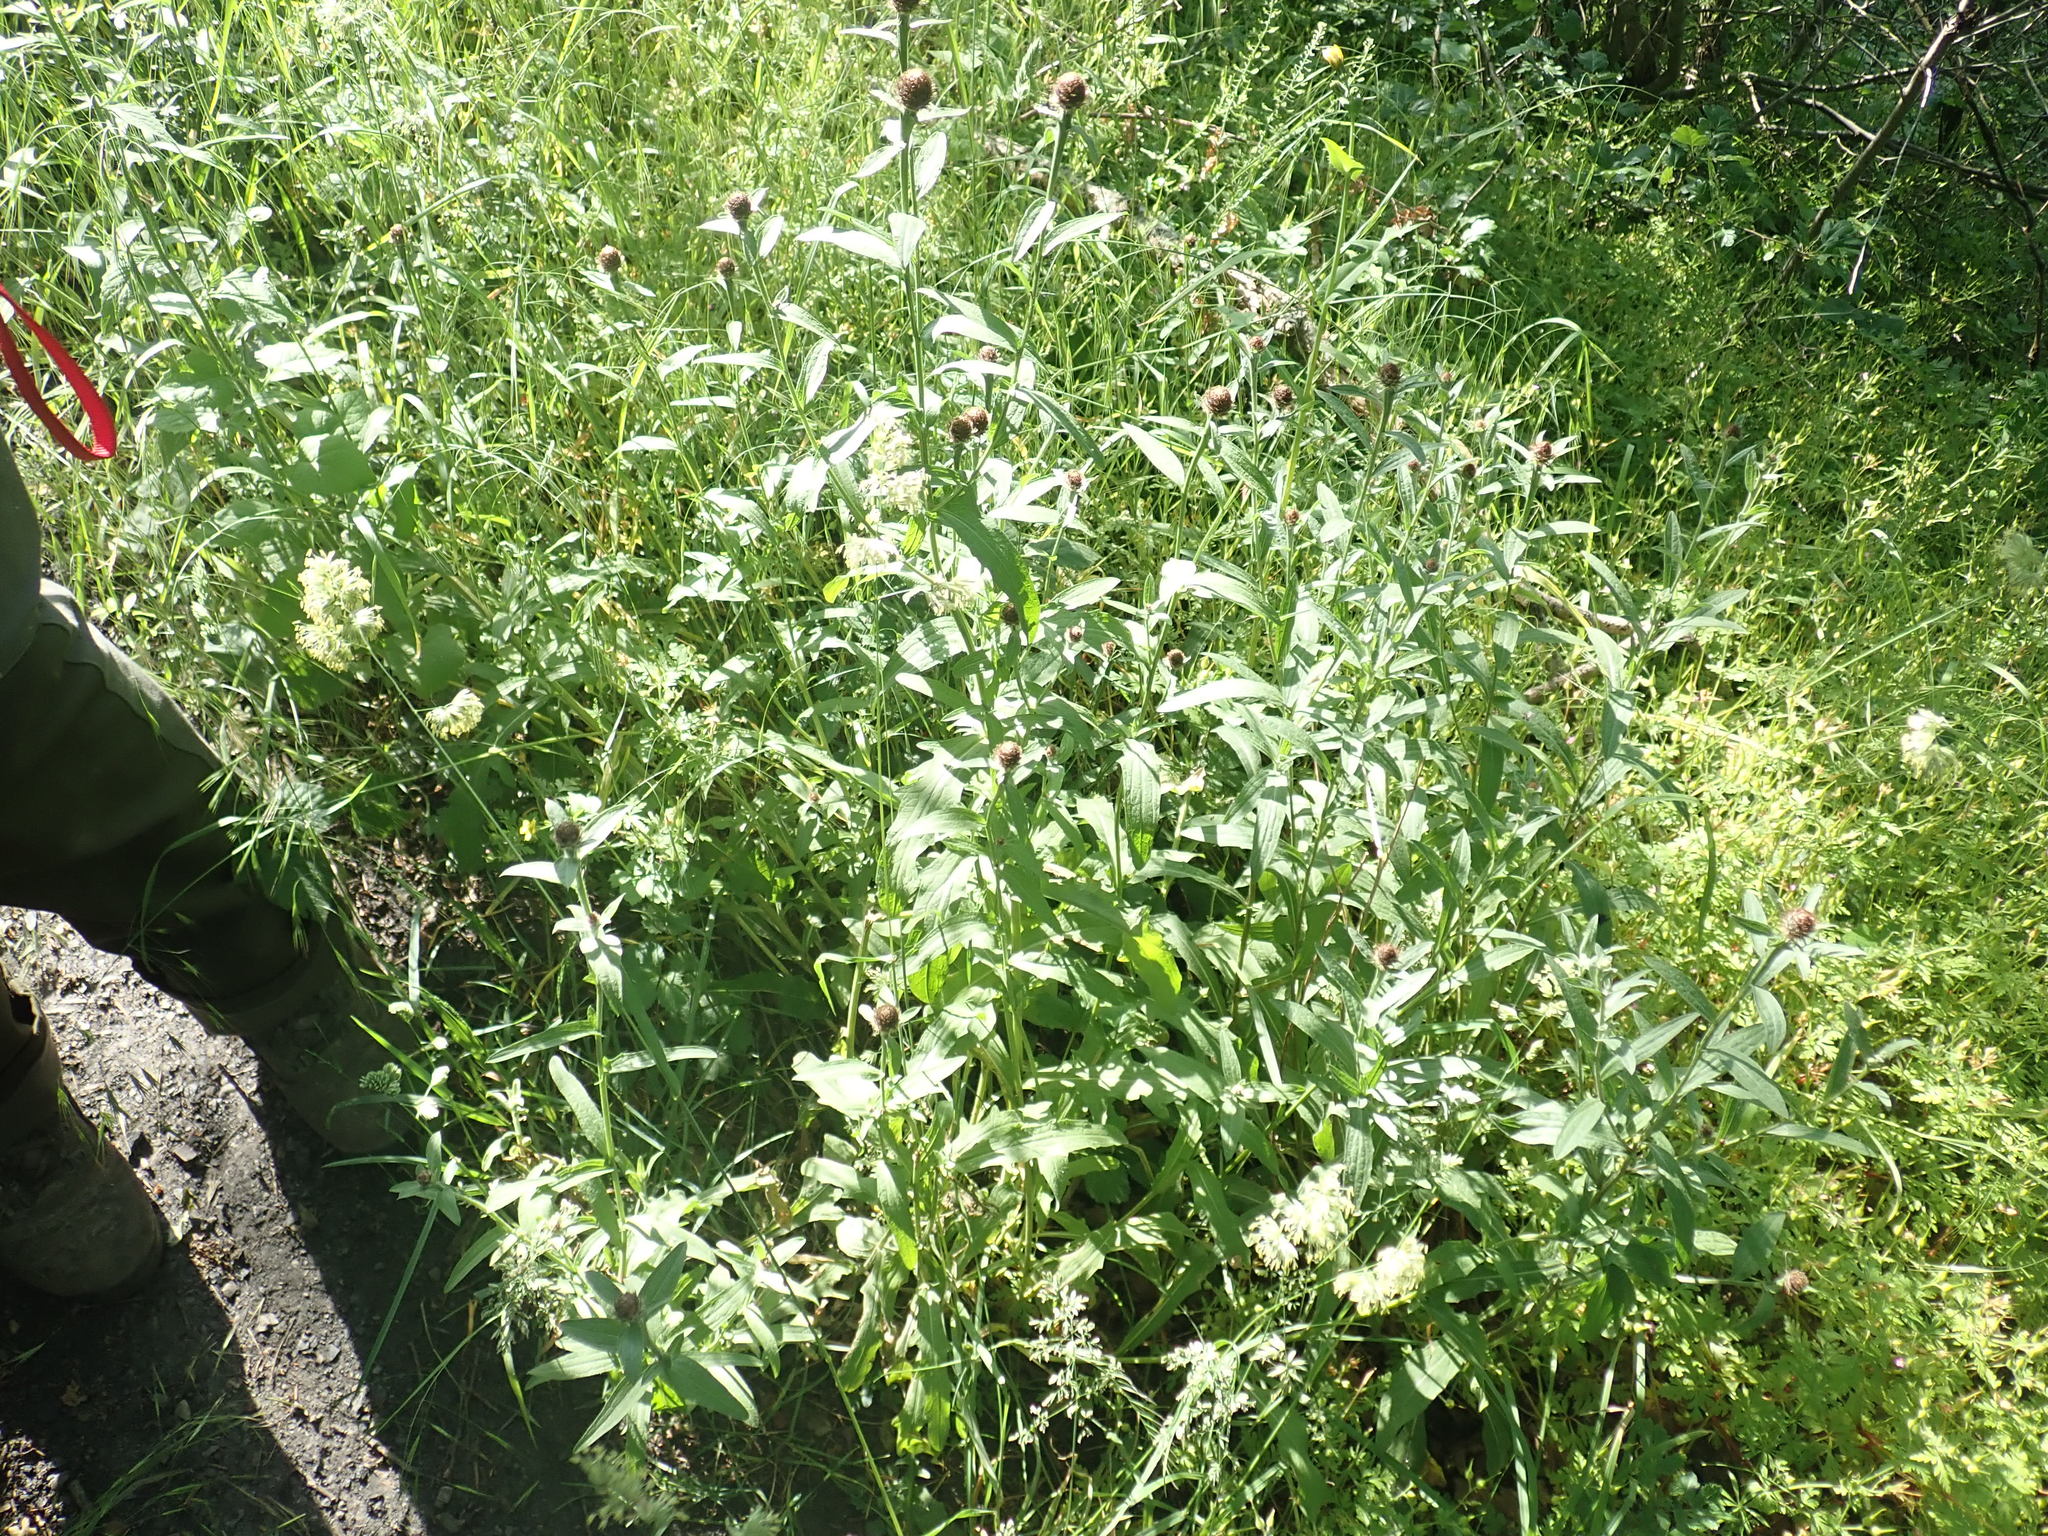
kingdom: Plantae
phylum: Tracheophyta
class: Magnoliopsida
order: Asterales
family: Asteraceae
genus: Centaurea
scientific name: Centaurea
